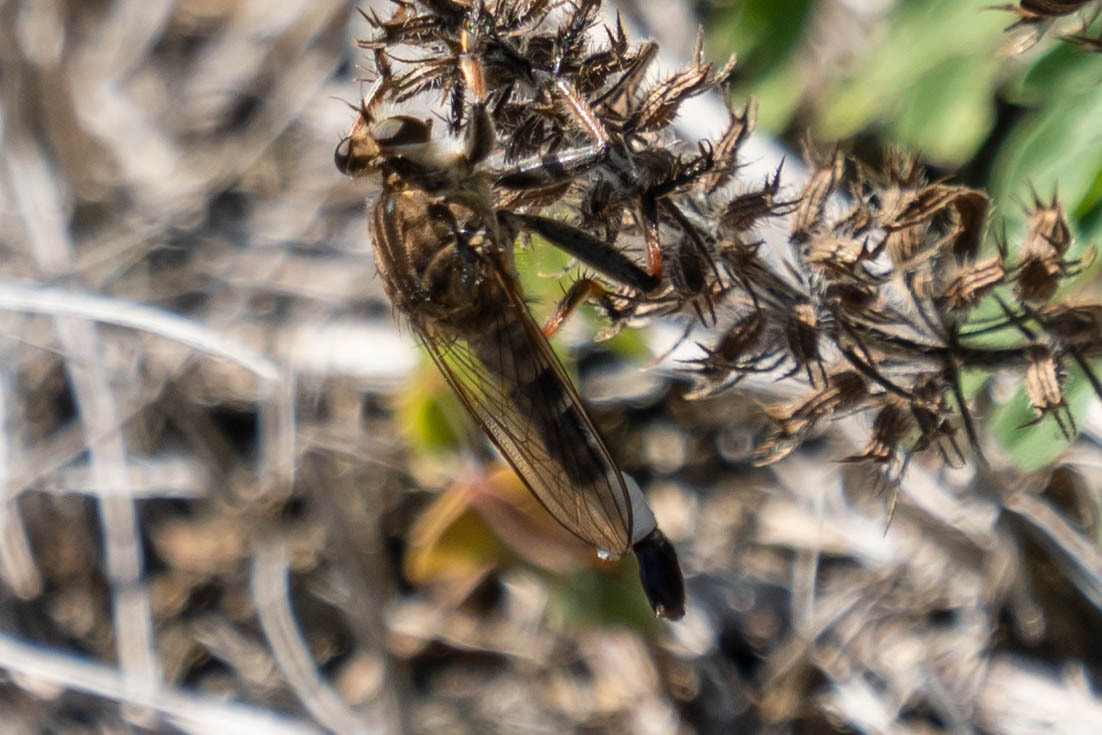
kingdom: Animalia
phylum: Arthropoda
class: Insecta
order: Diptera
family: Asilidae
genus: Efferia
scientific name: Efferia albibarbis
